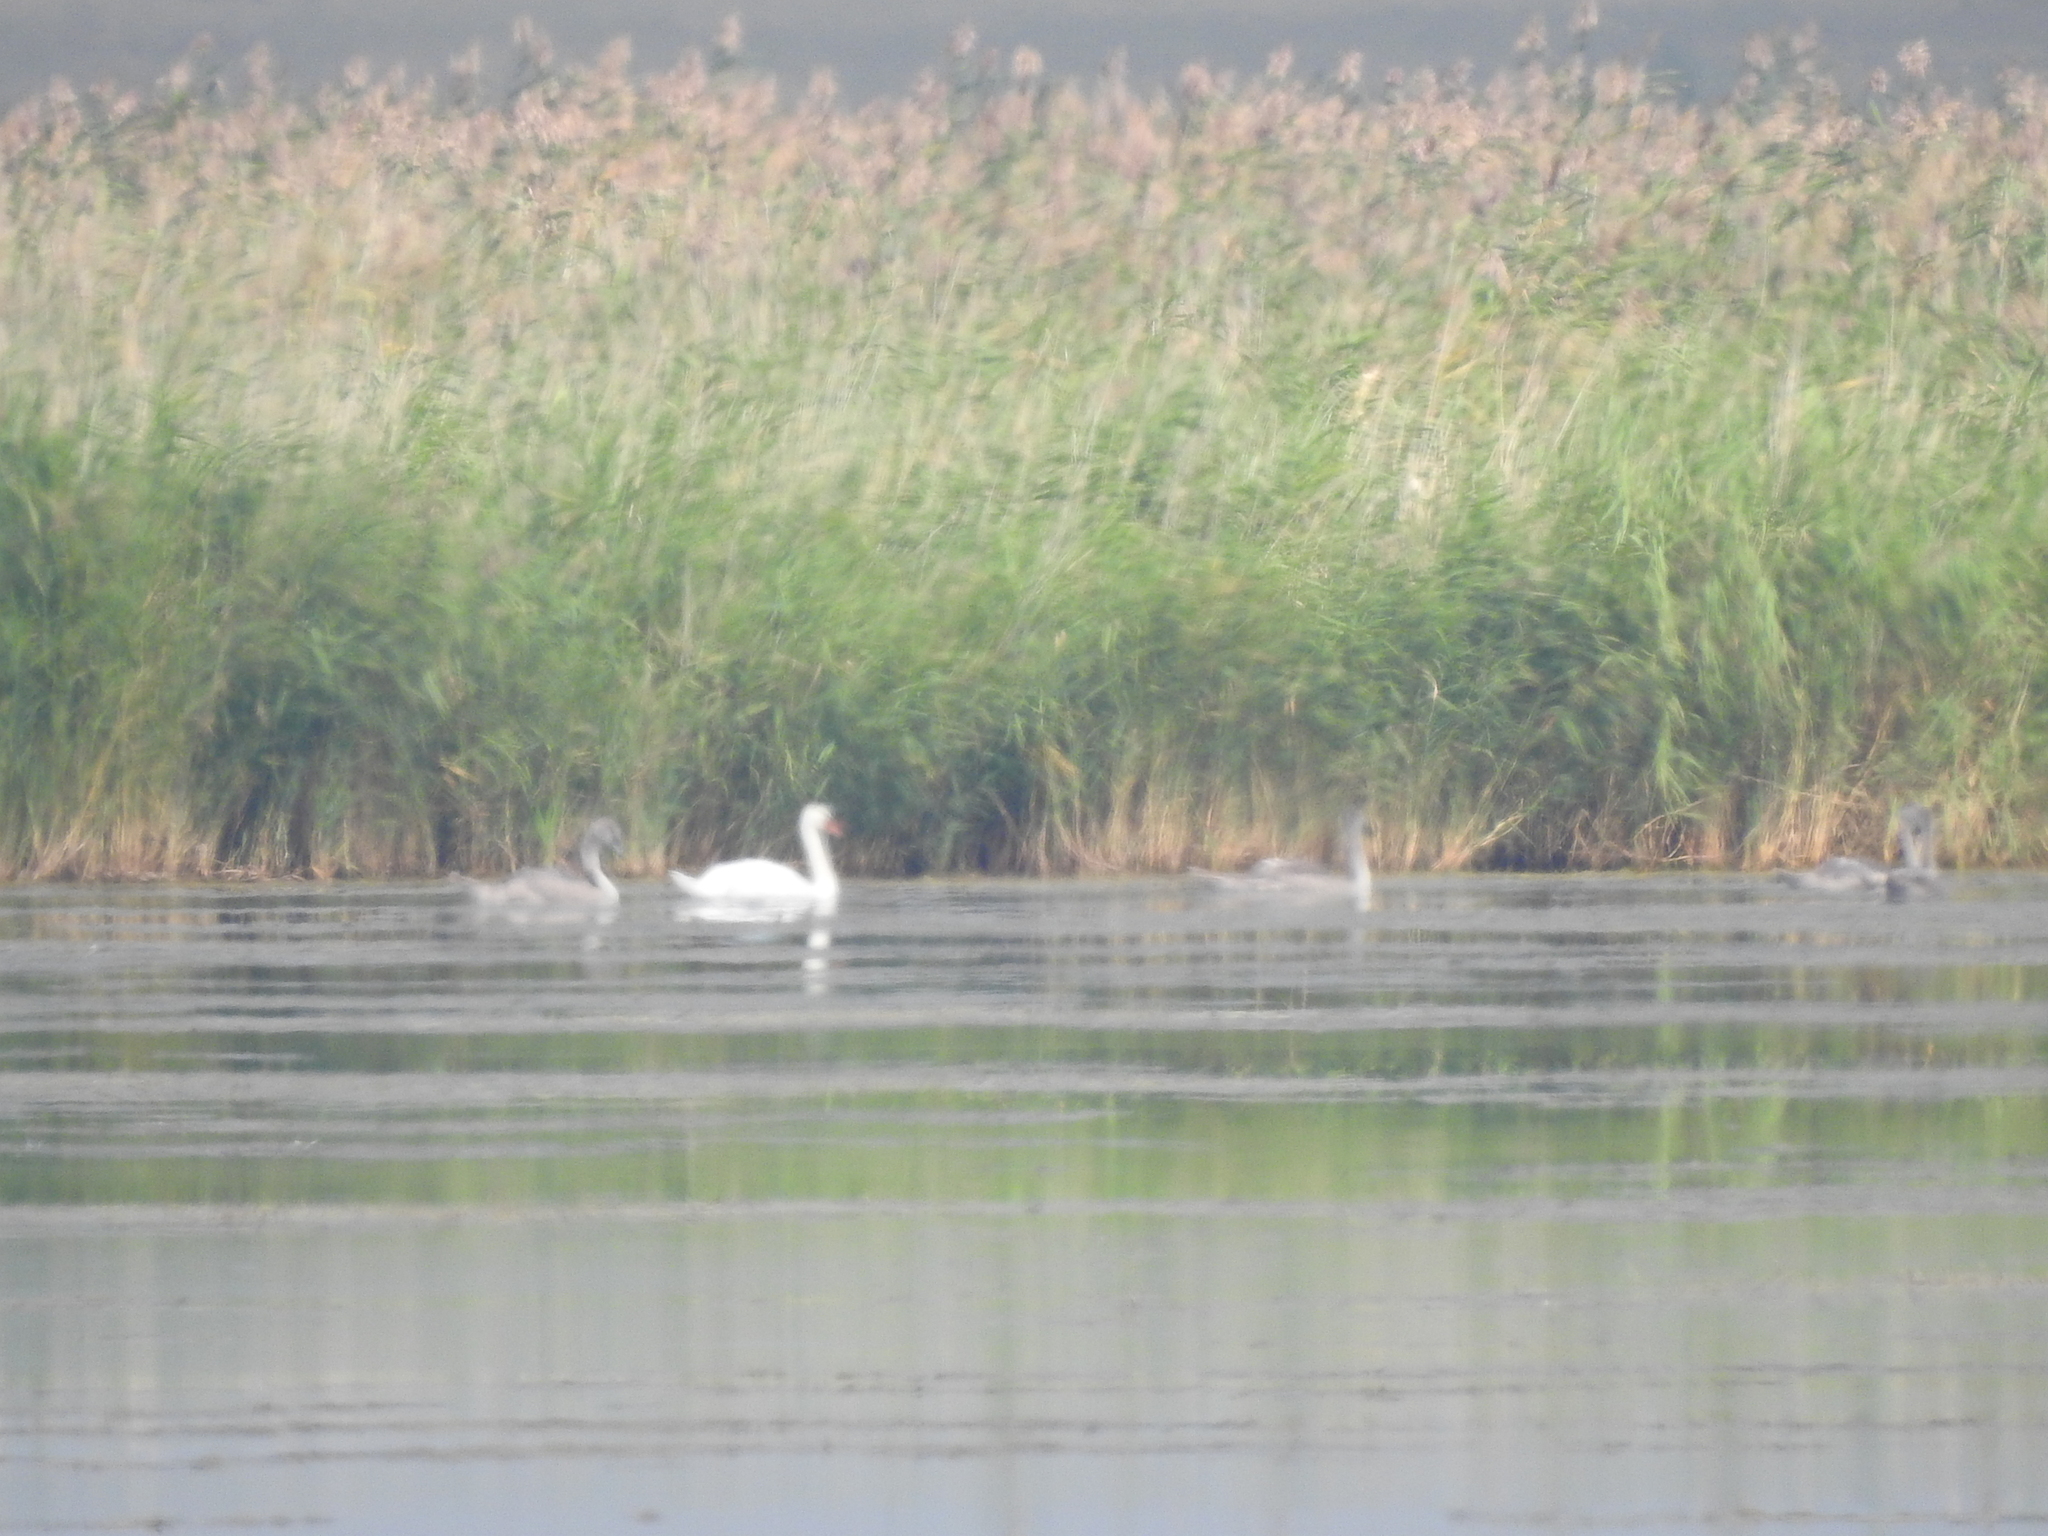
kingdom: Animalia
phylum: Chordata
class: Aves
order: Anseriformes
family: Anatidae
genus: Cygnus
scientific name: Cygnus olor
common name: Mute swan
